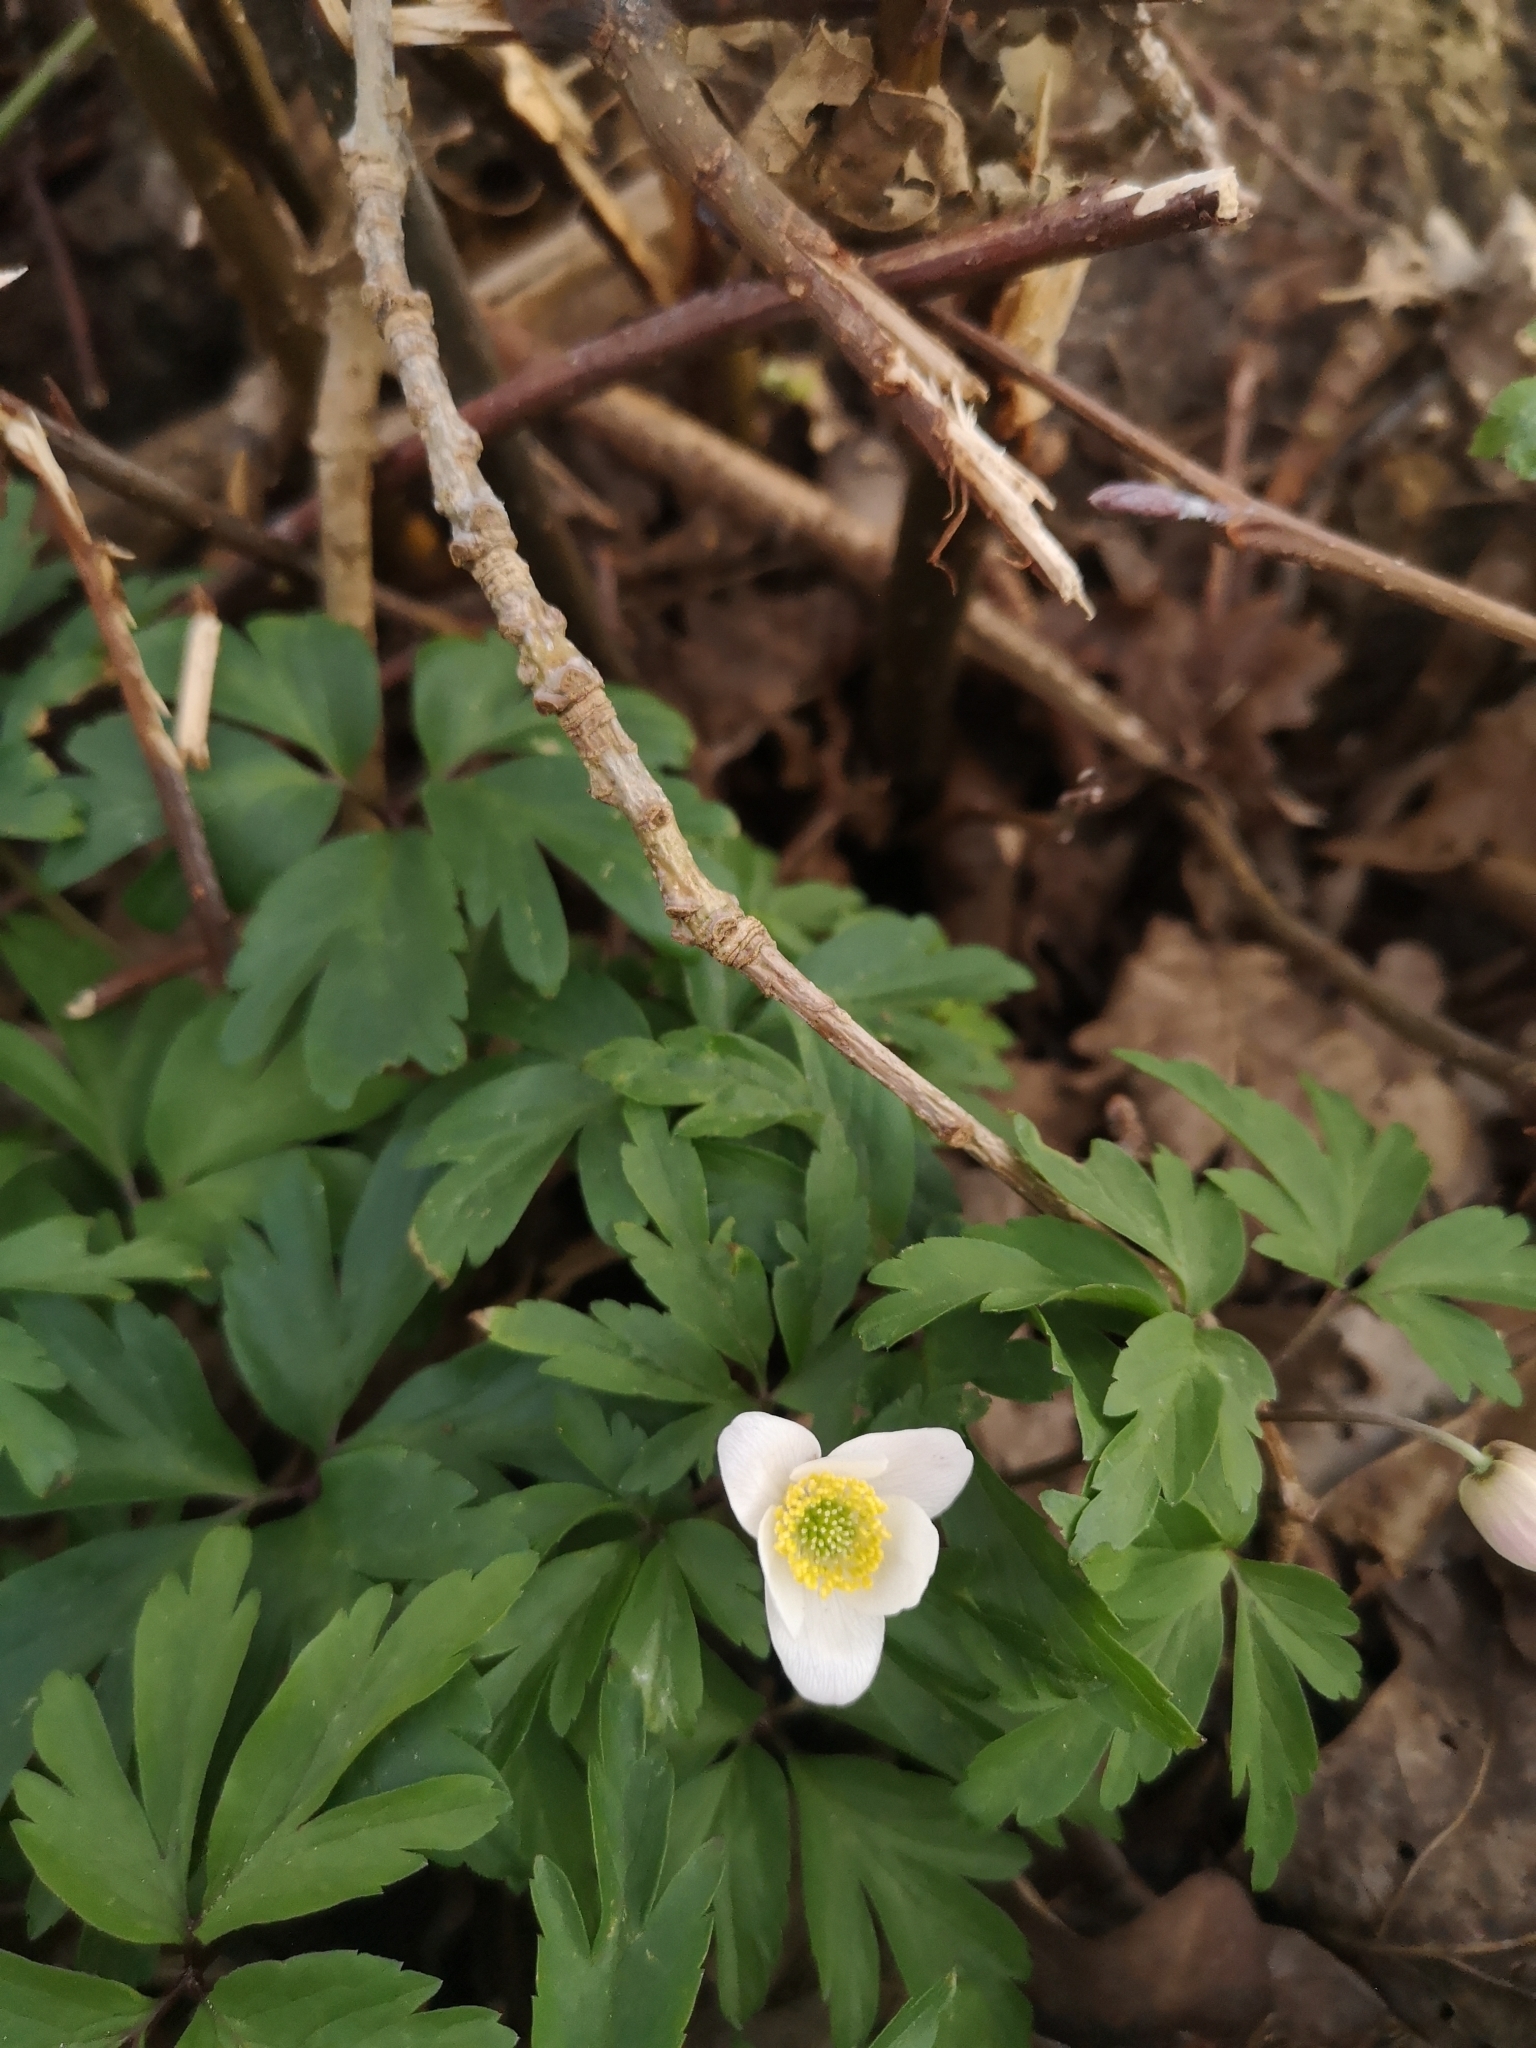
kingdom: Plantae
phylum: Tracheophyta
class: Magnoliopsida
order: Ranunculales
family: Ranunculaceae
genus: Anemone
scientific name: Anemone nemorosa
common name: Wood anemone
